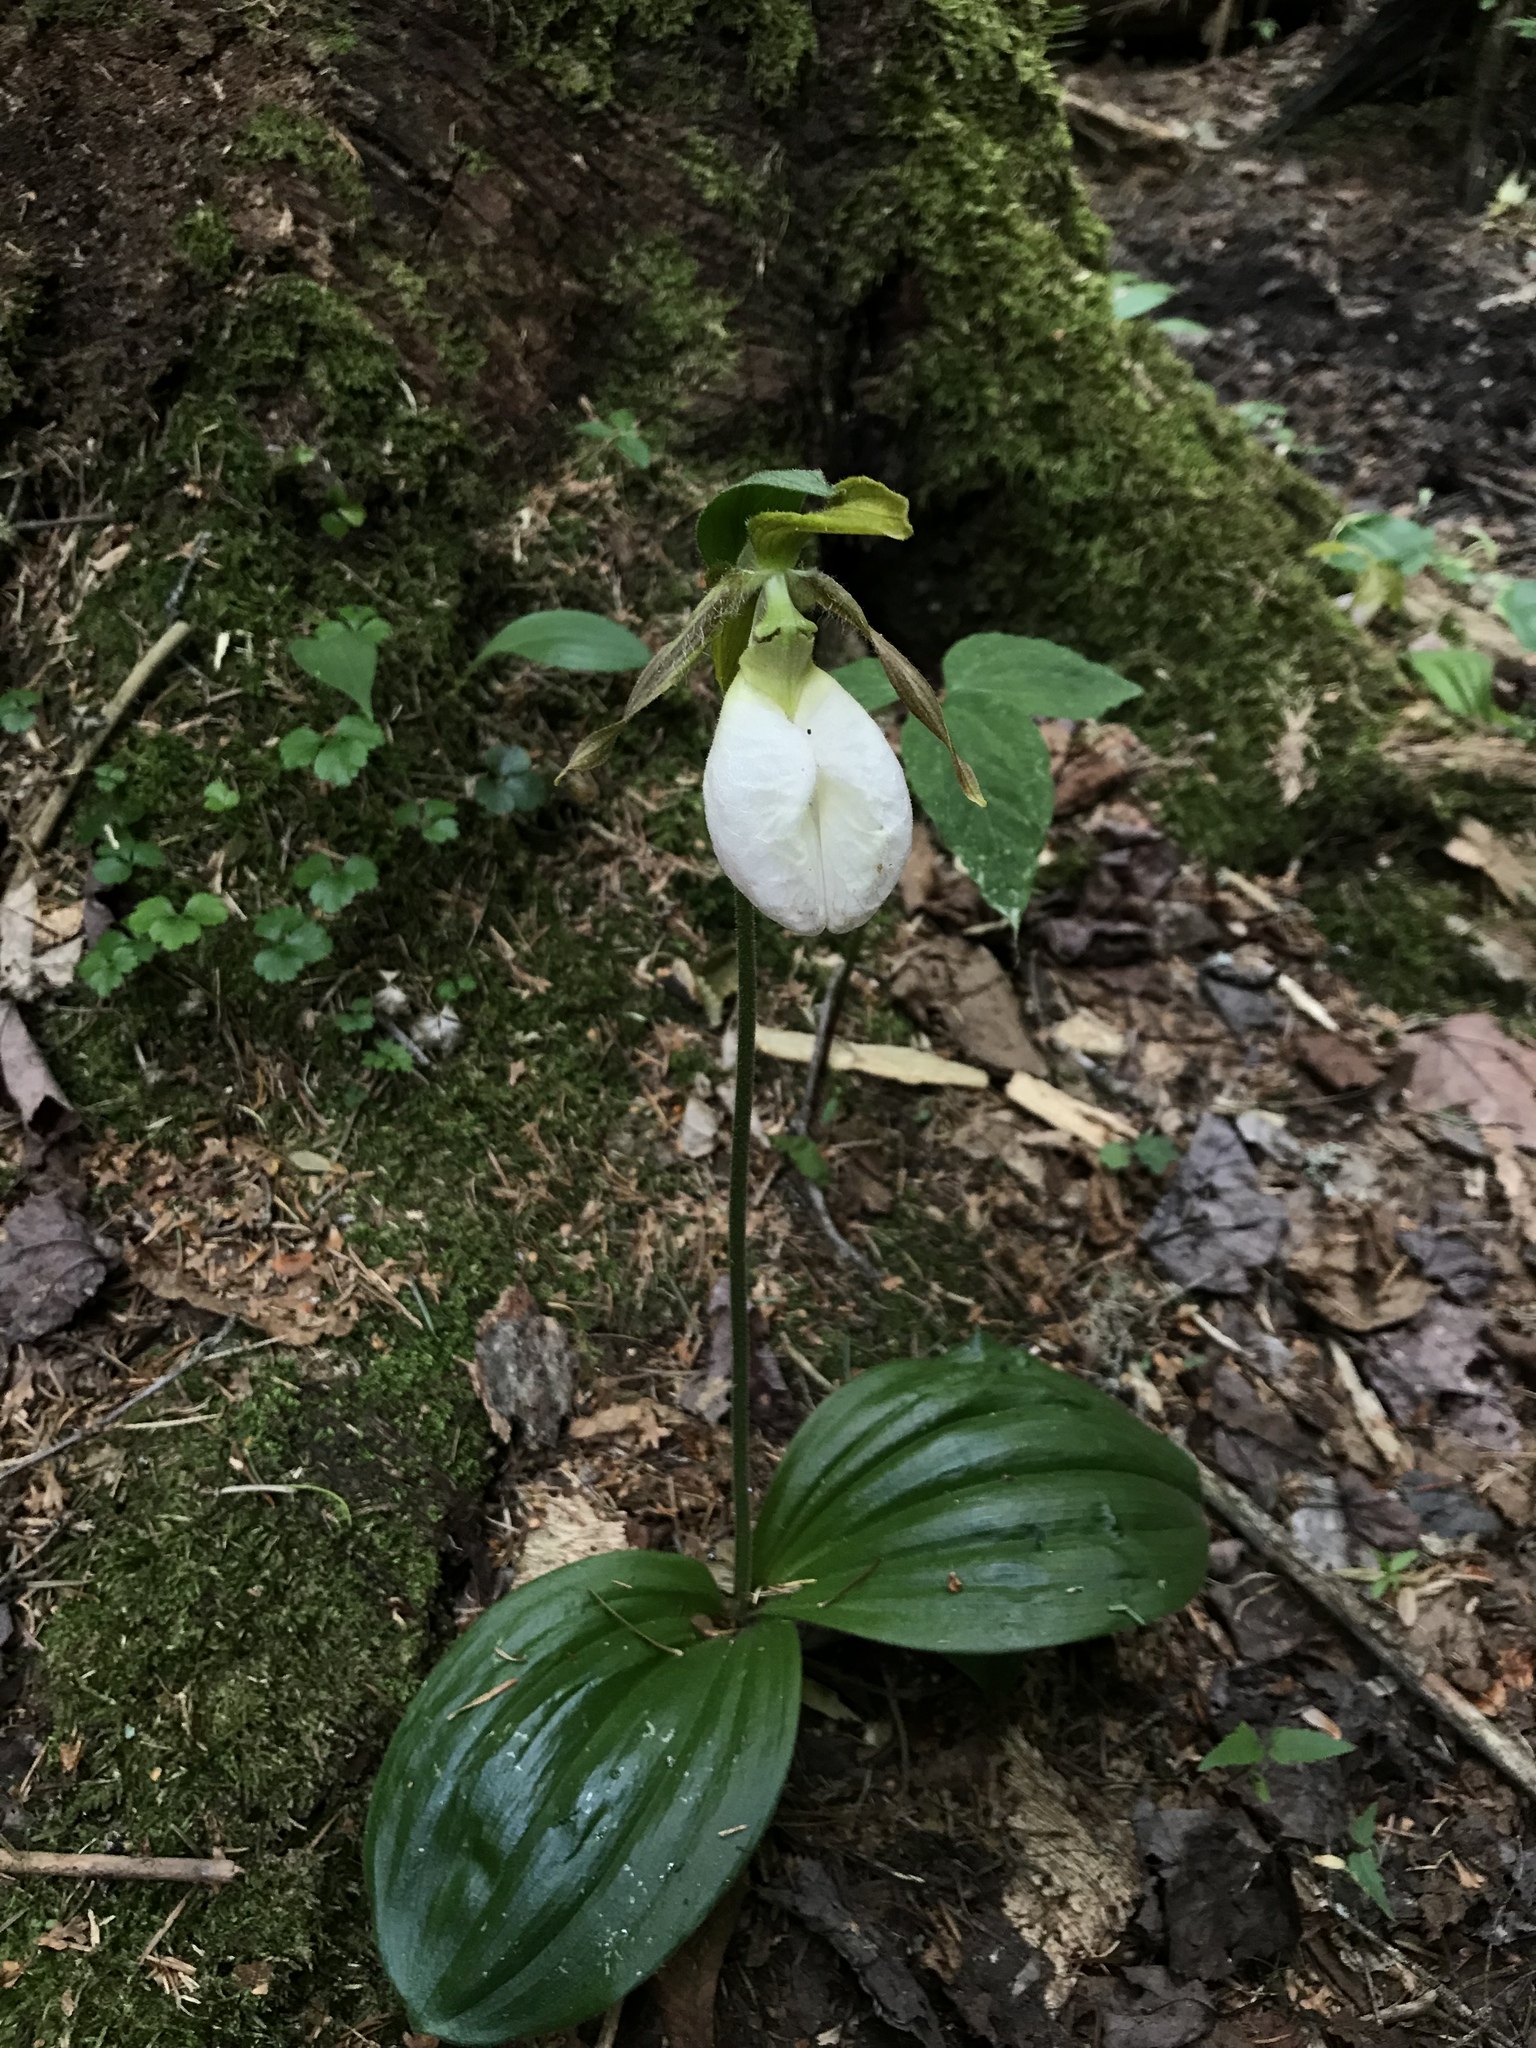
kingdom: Plantae
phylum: Tracheophyta
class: Liliopsida
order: Asparagales
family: Orchidaceae
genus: Cypripedium
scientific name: Cypripedium acaule
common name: Pink lady's-slipper
